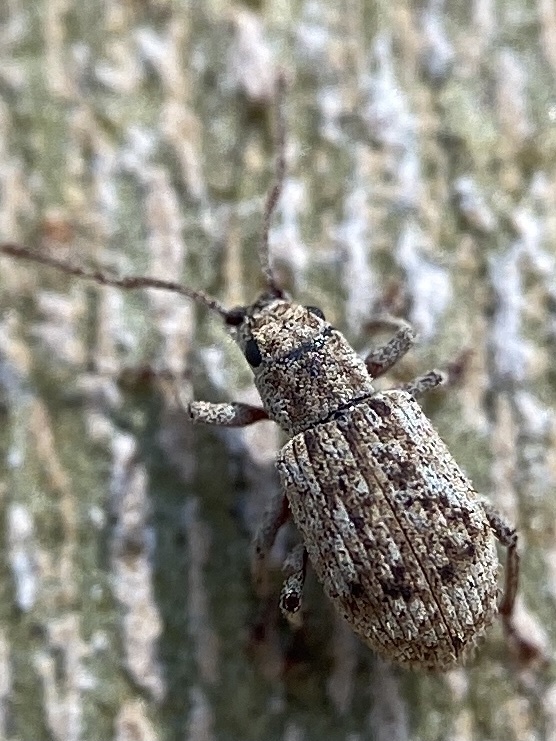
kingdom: Animalia
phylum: Arthropoda
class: Insecta
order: Coleoptera
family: Curculionidae
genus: Pseudoedophrys
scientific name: Pseudoedophrys hilleri
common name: Weevil
